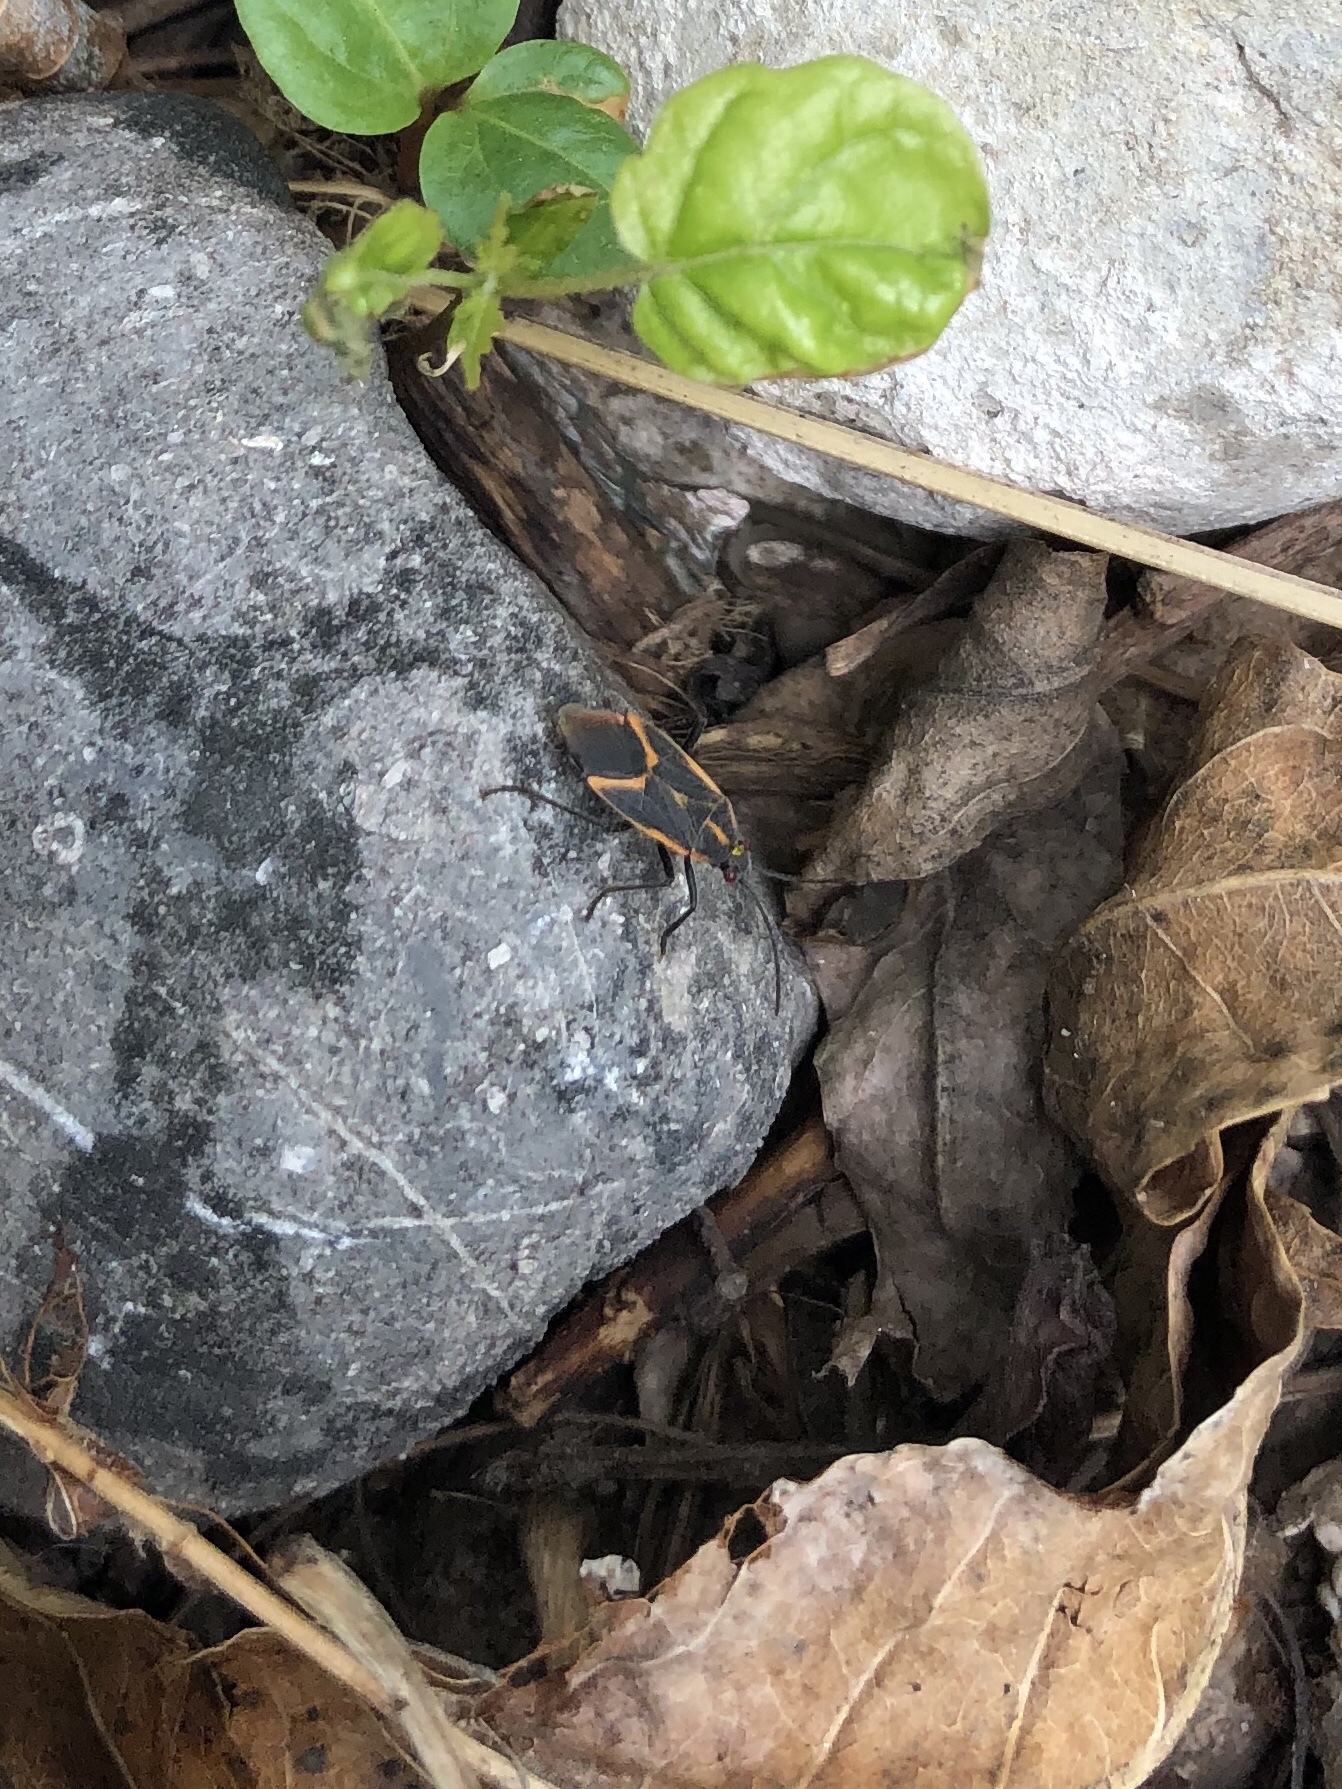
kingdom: Animalia
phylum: Arthropoda
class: Insecta
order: Hemiptera
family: Rhopalidae
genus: Boisea
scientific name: Boisea trivittata
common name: Boxelder bug
